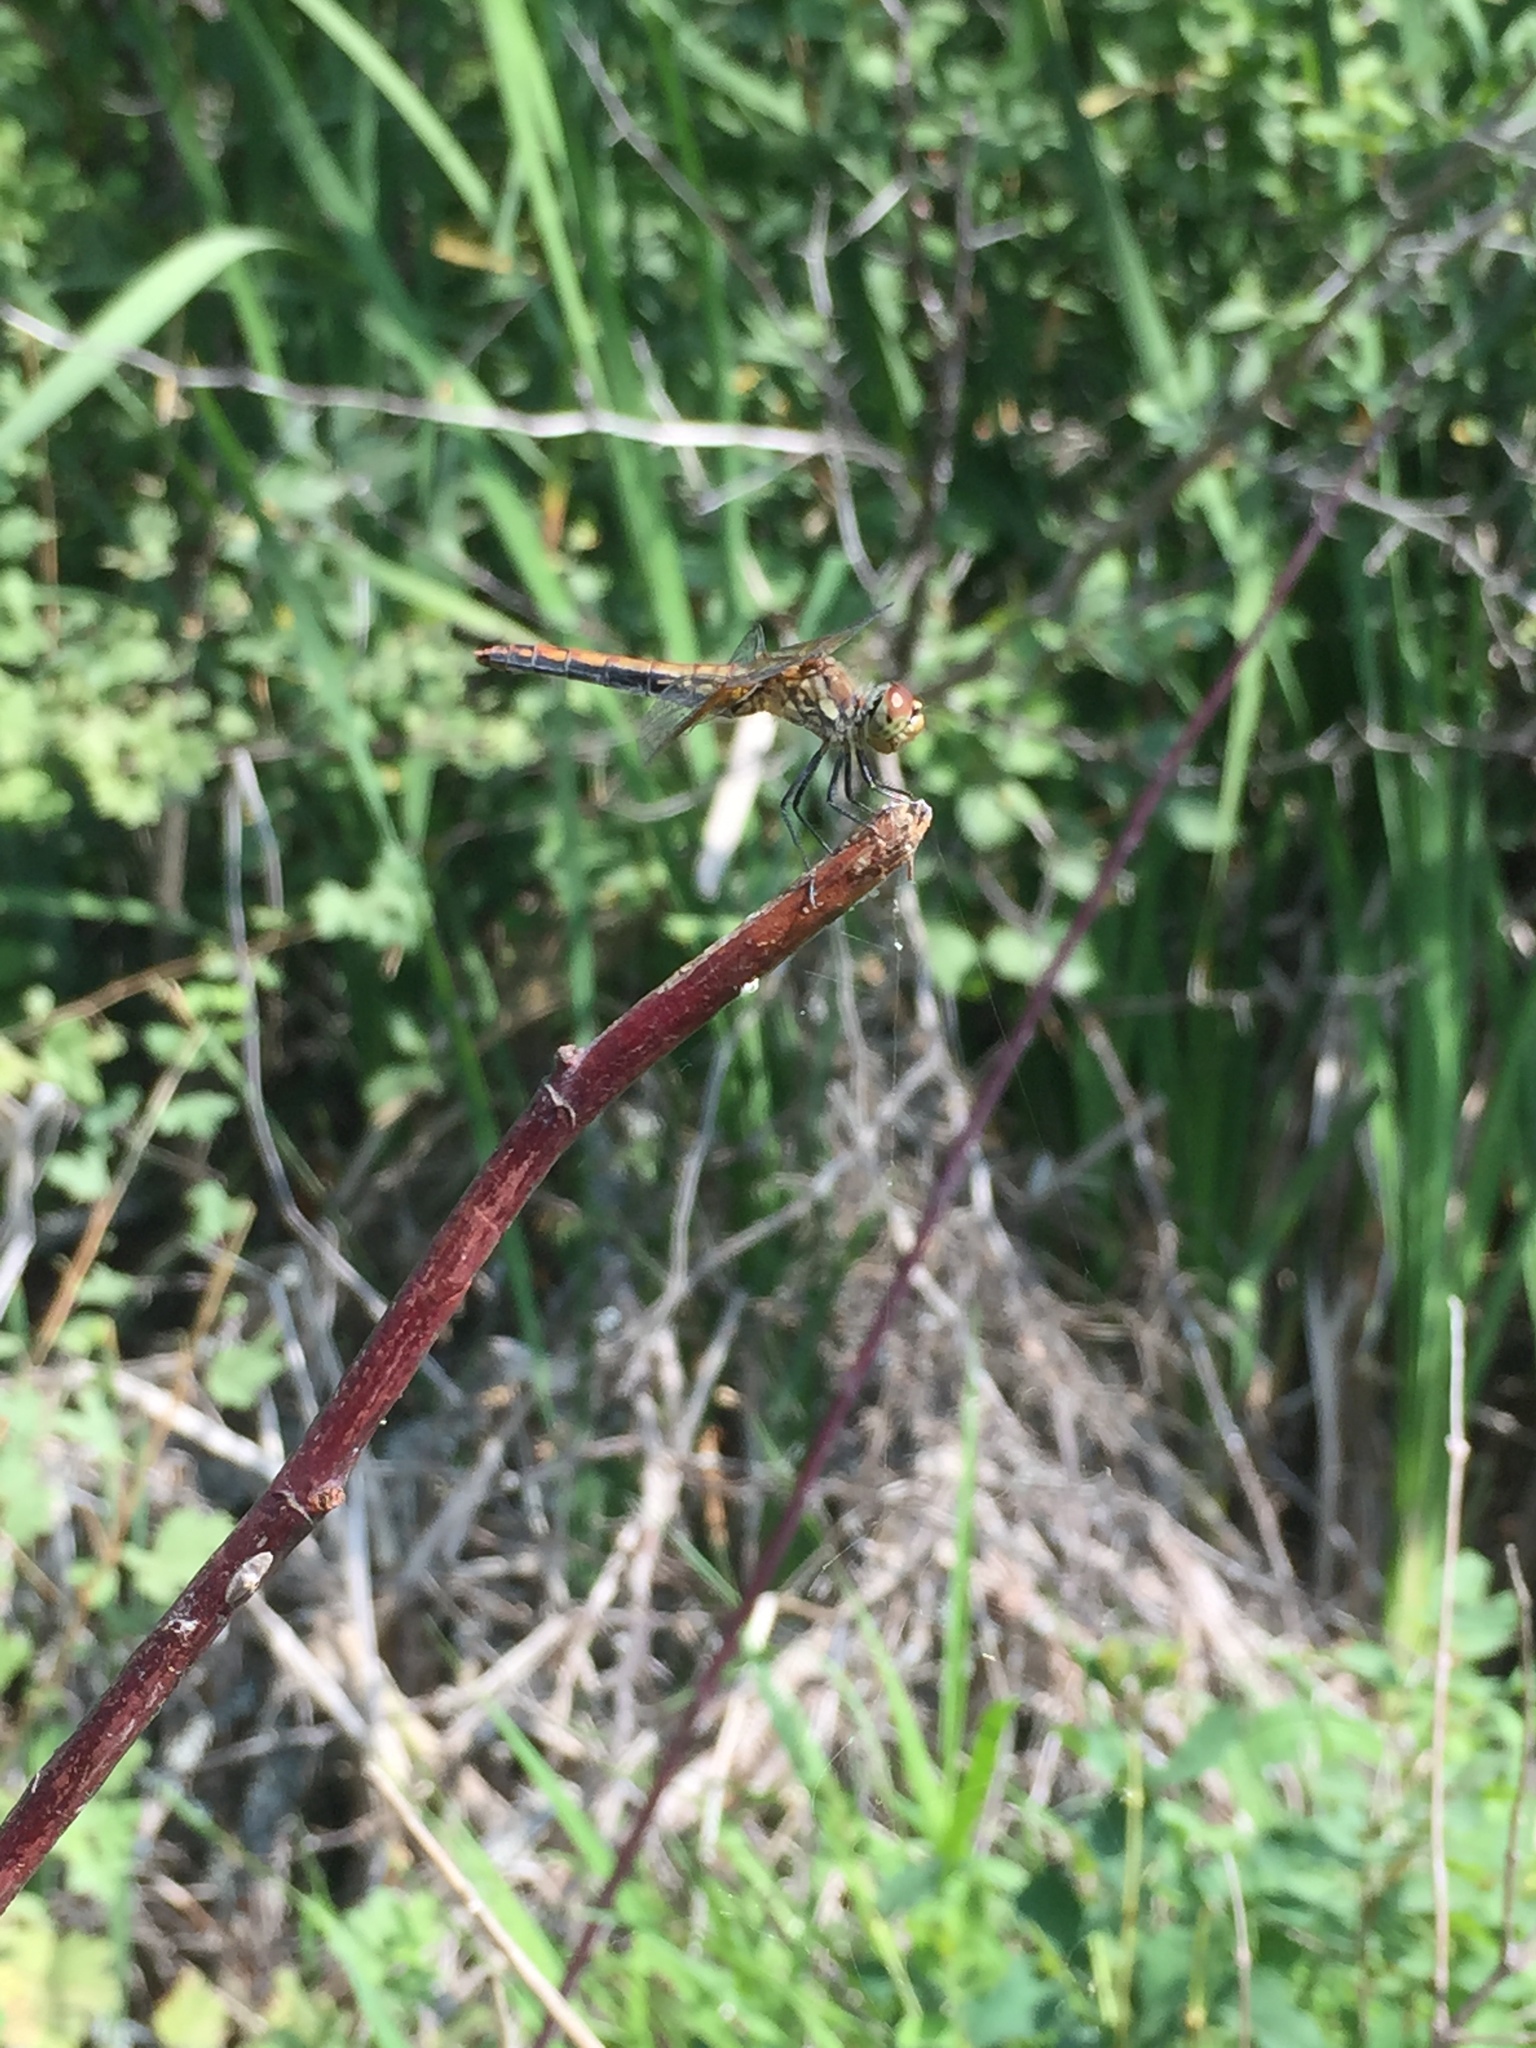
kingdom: Animalia
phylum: Arthropoda
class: Insecta
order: Odonata
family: Libellulidae
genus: Sympetrum
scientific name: Sympetrum semicinctum
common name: Band-winged meadowhawk
